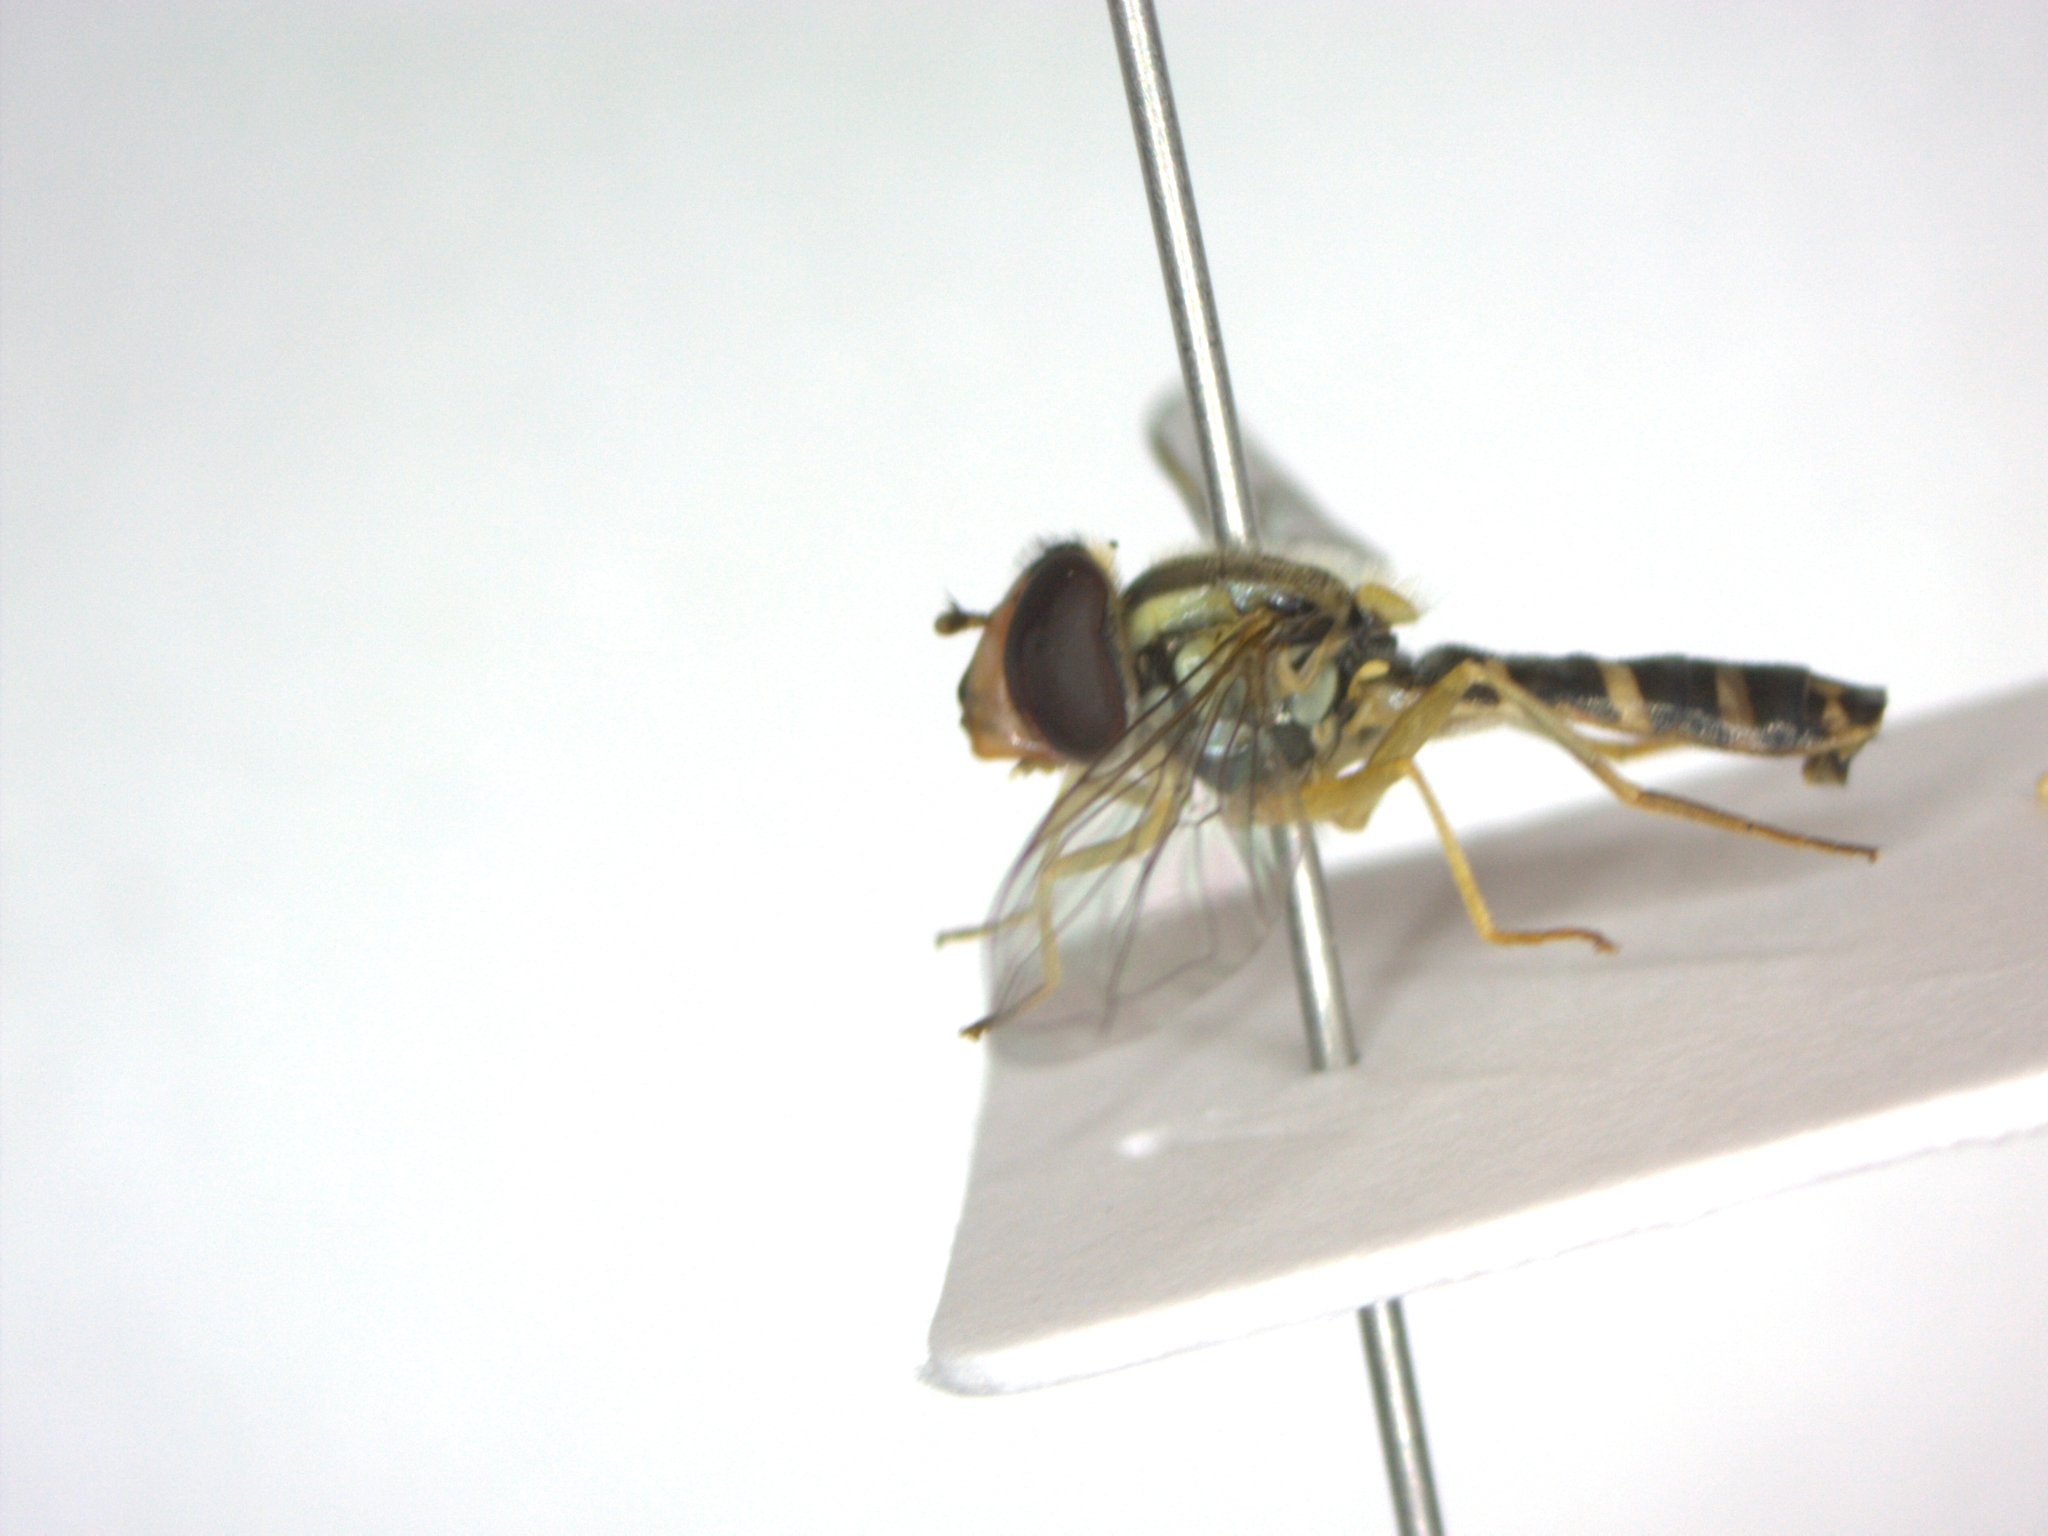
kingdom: Animalia
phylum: Arthropoda
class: Insecta
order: Diptera
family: Syrphidae
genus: Sphaerophoria
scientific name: Sphaerophoria scripta
